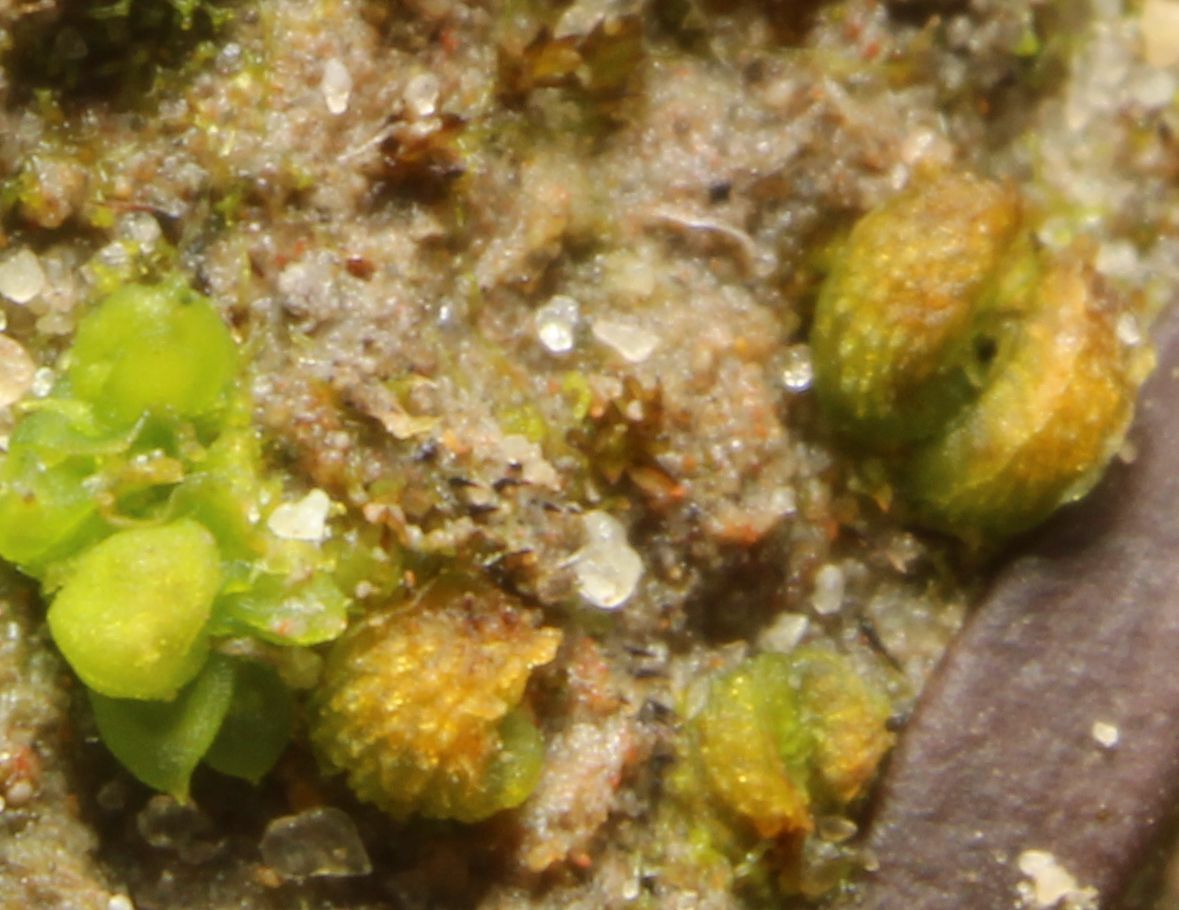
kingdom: Plantae
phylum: Marchantiophyta
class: Marchantiopsida
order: Sphaerocarpales
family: Riellaceae
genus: Austroriella
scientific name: Austroriella salta
